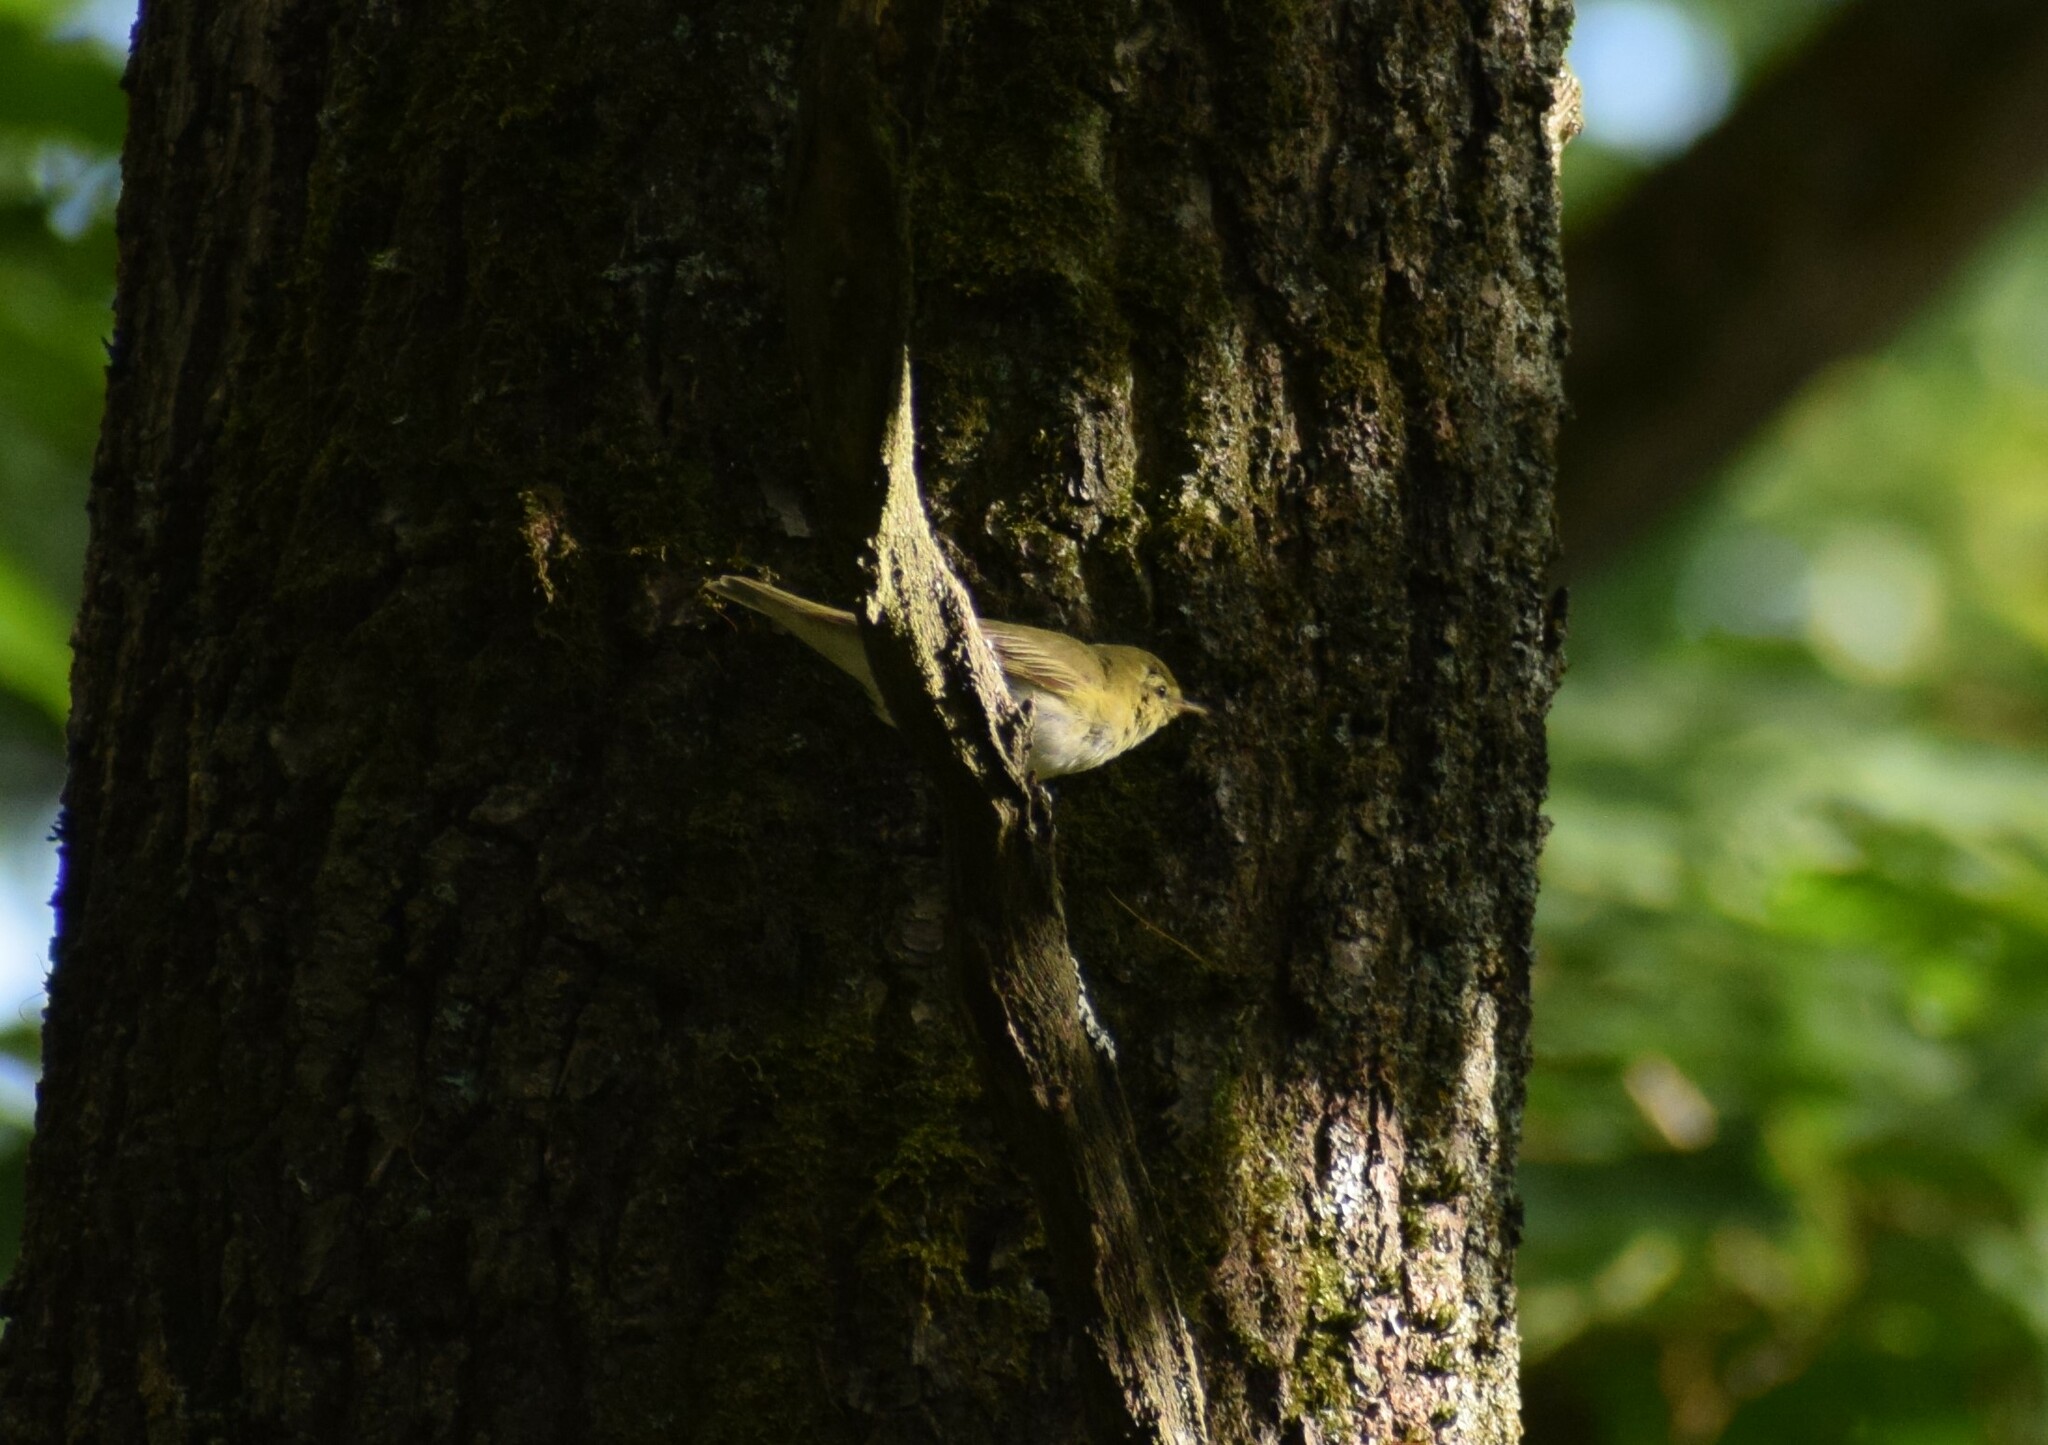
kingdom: Animalia
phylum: Chordata
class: Aves
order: Passeriformes
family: Phylloscopidae
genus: Phylloscopus
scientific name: Phylloscopus sibillatrix
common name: Wood warbler
